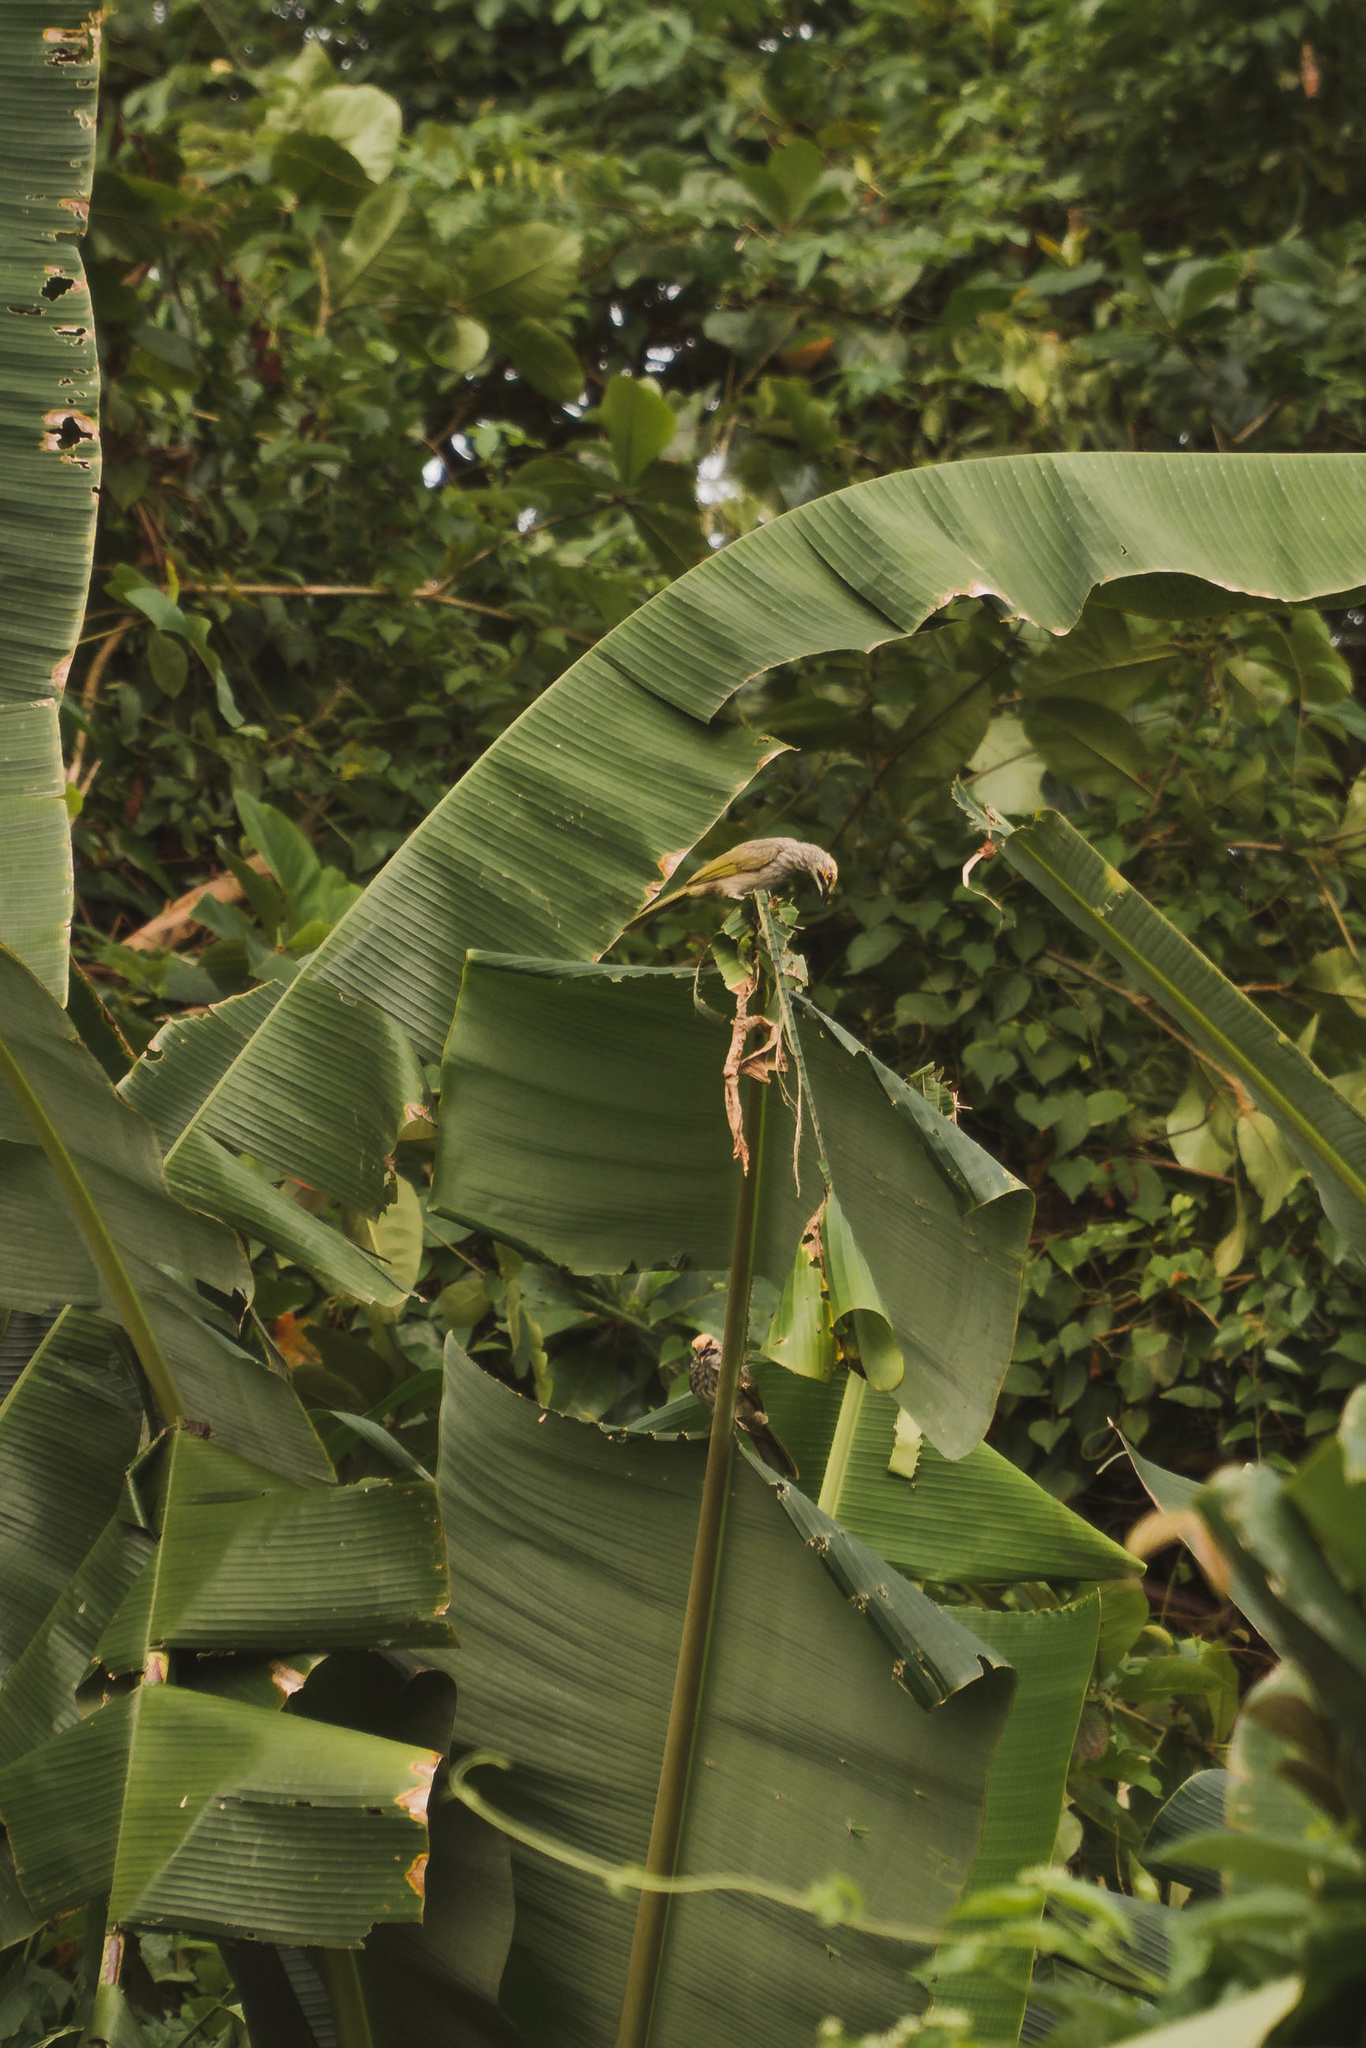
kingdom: Animalia
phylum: Chordata
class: Aves
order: Passeriformes
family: Pycnonotidae
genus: Pycnonotus
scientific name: Pycnonotus zeylanicus
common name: Straw-headed bulbul
